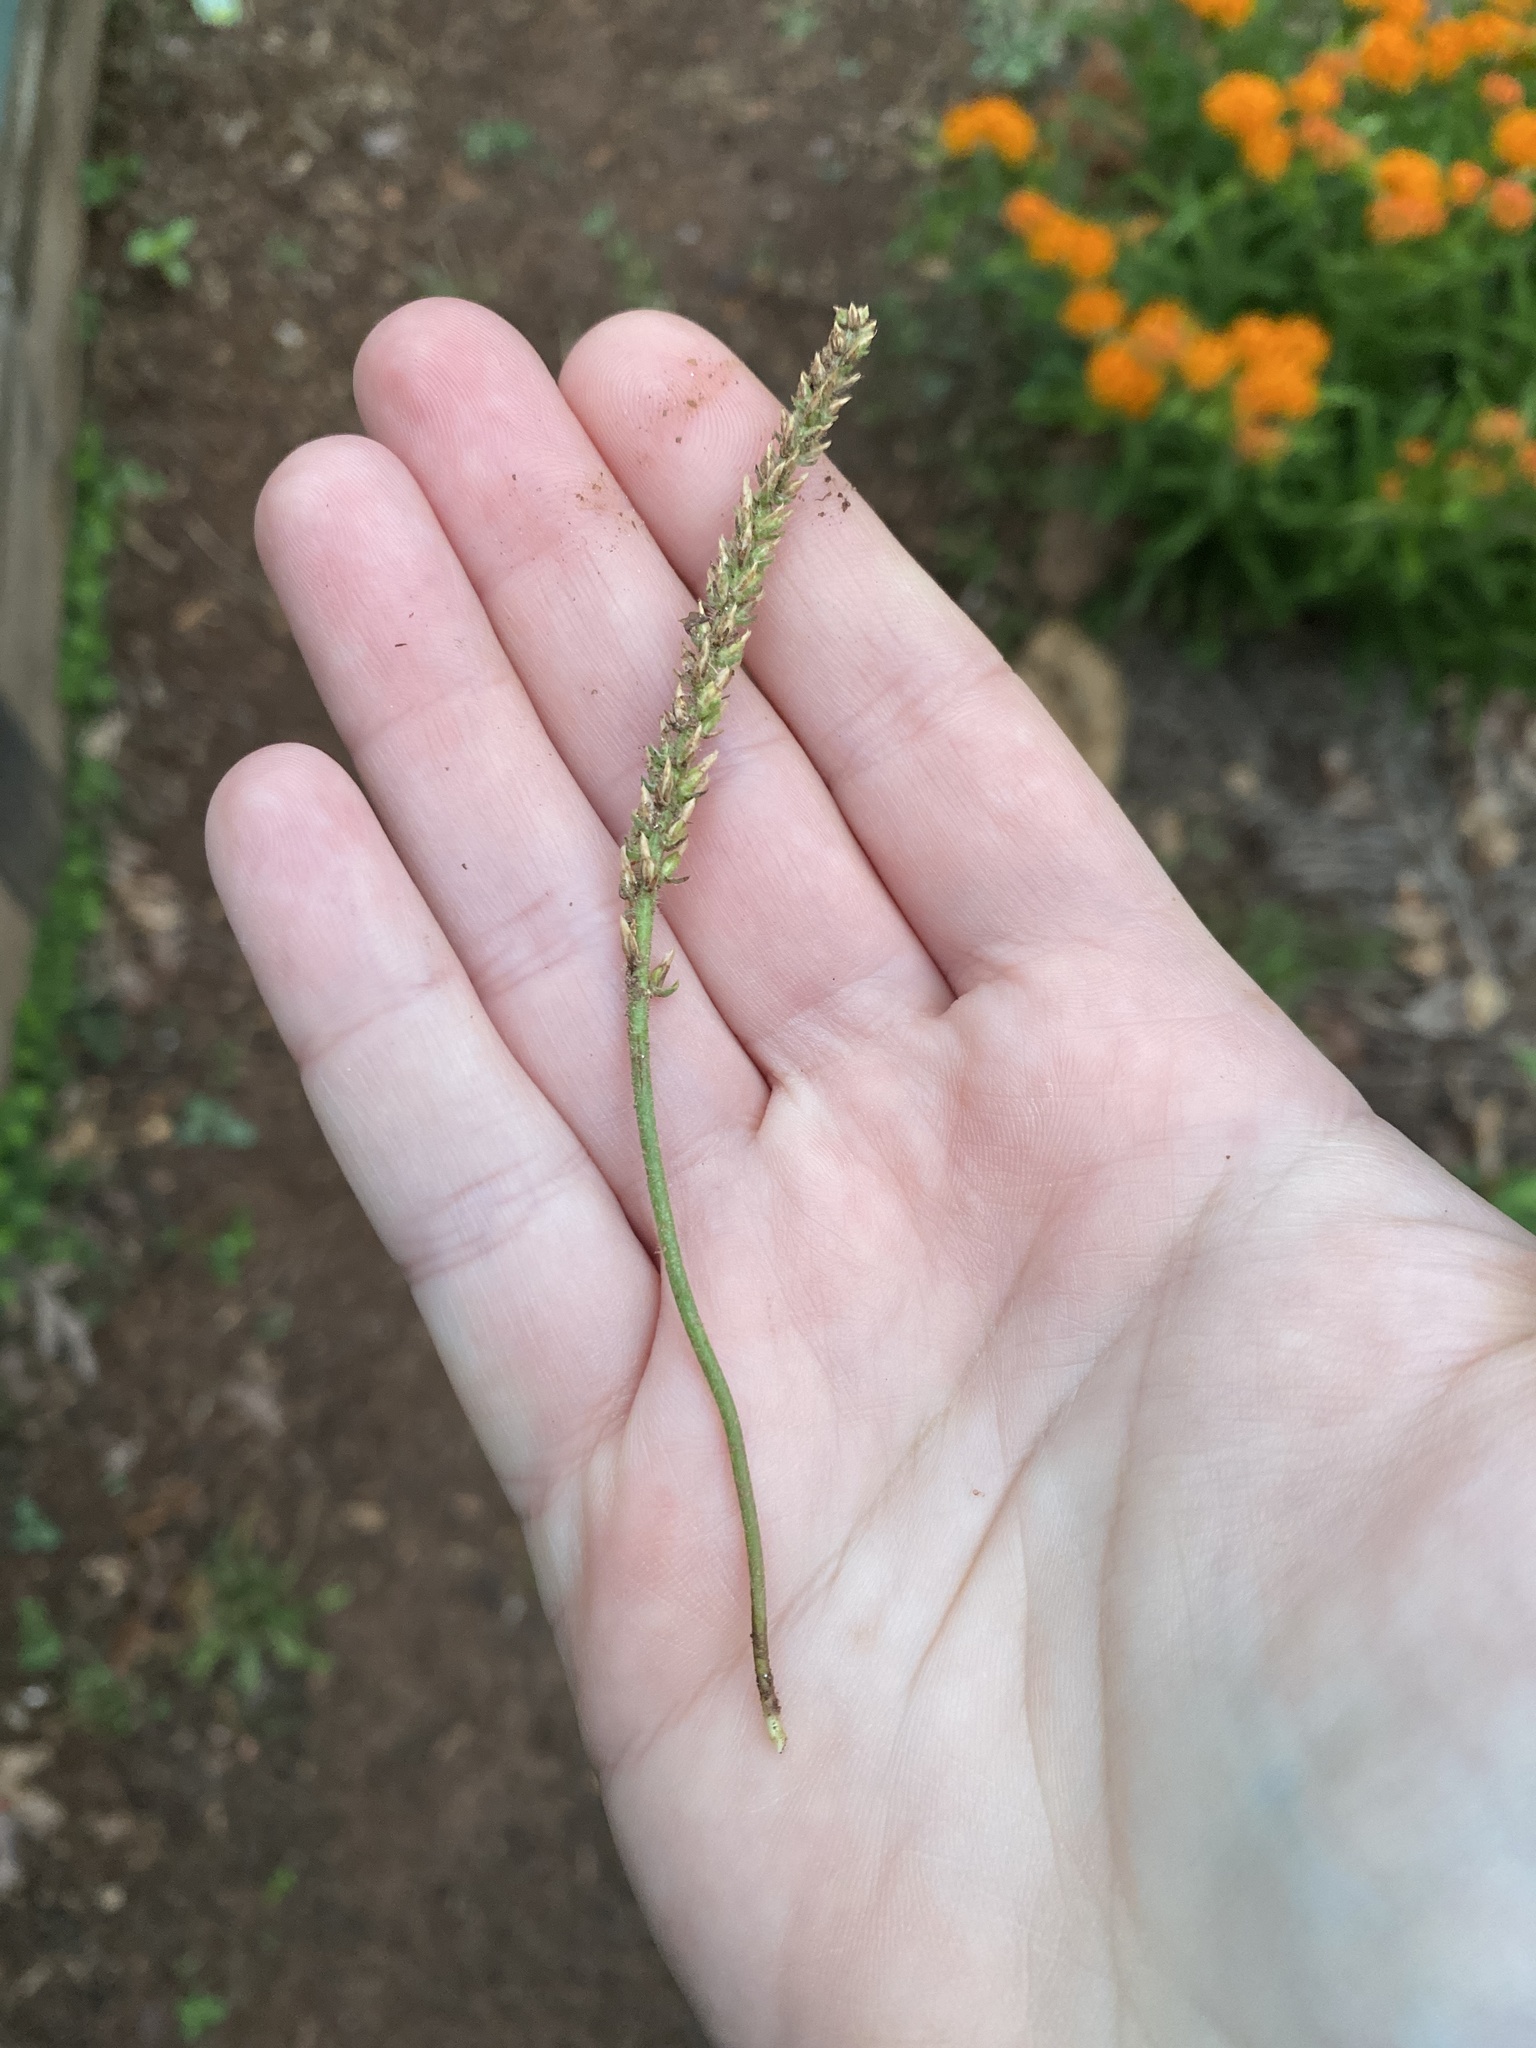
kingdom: Plantae
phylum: Tracheophyta
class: Magnoliopsida
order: Lamiales
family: Plantaginaceae
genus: Plantago
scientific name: Plantago virginica
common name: Hoary plantain
